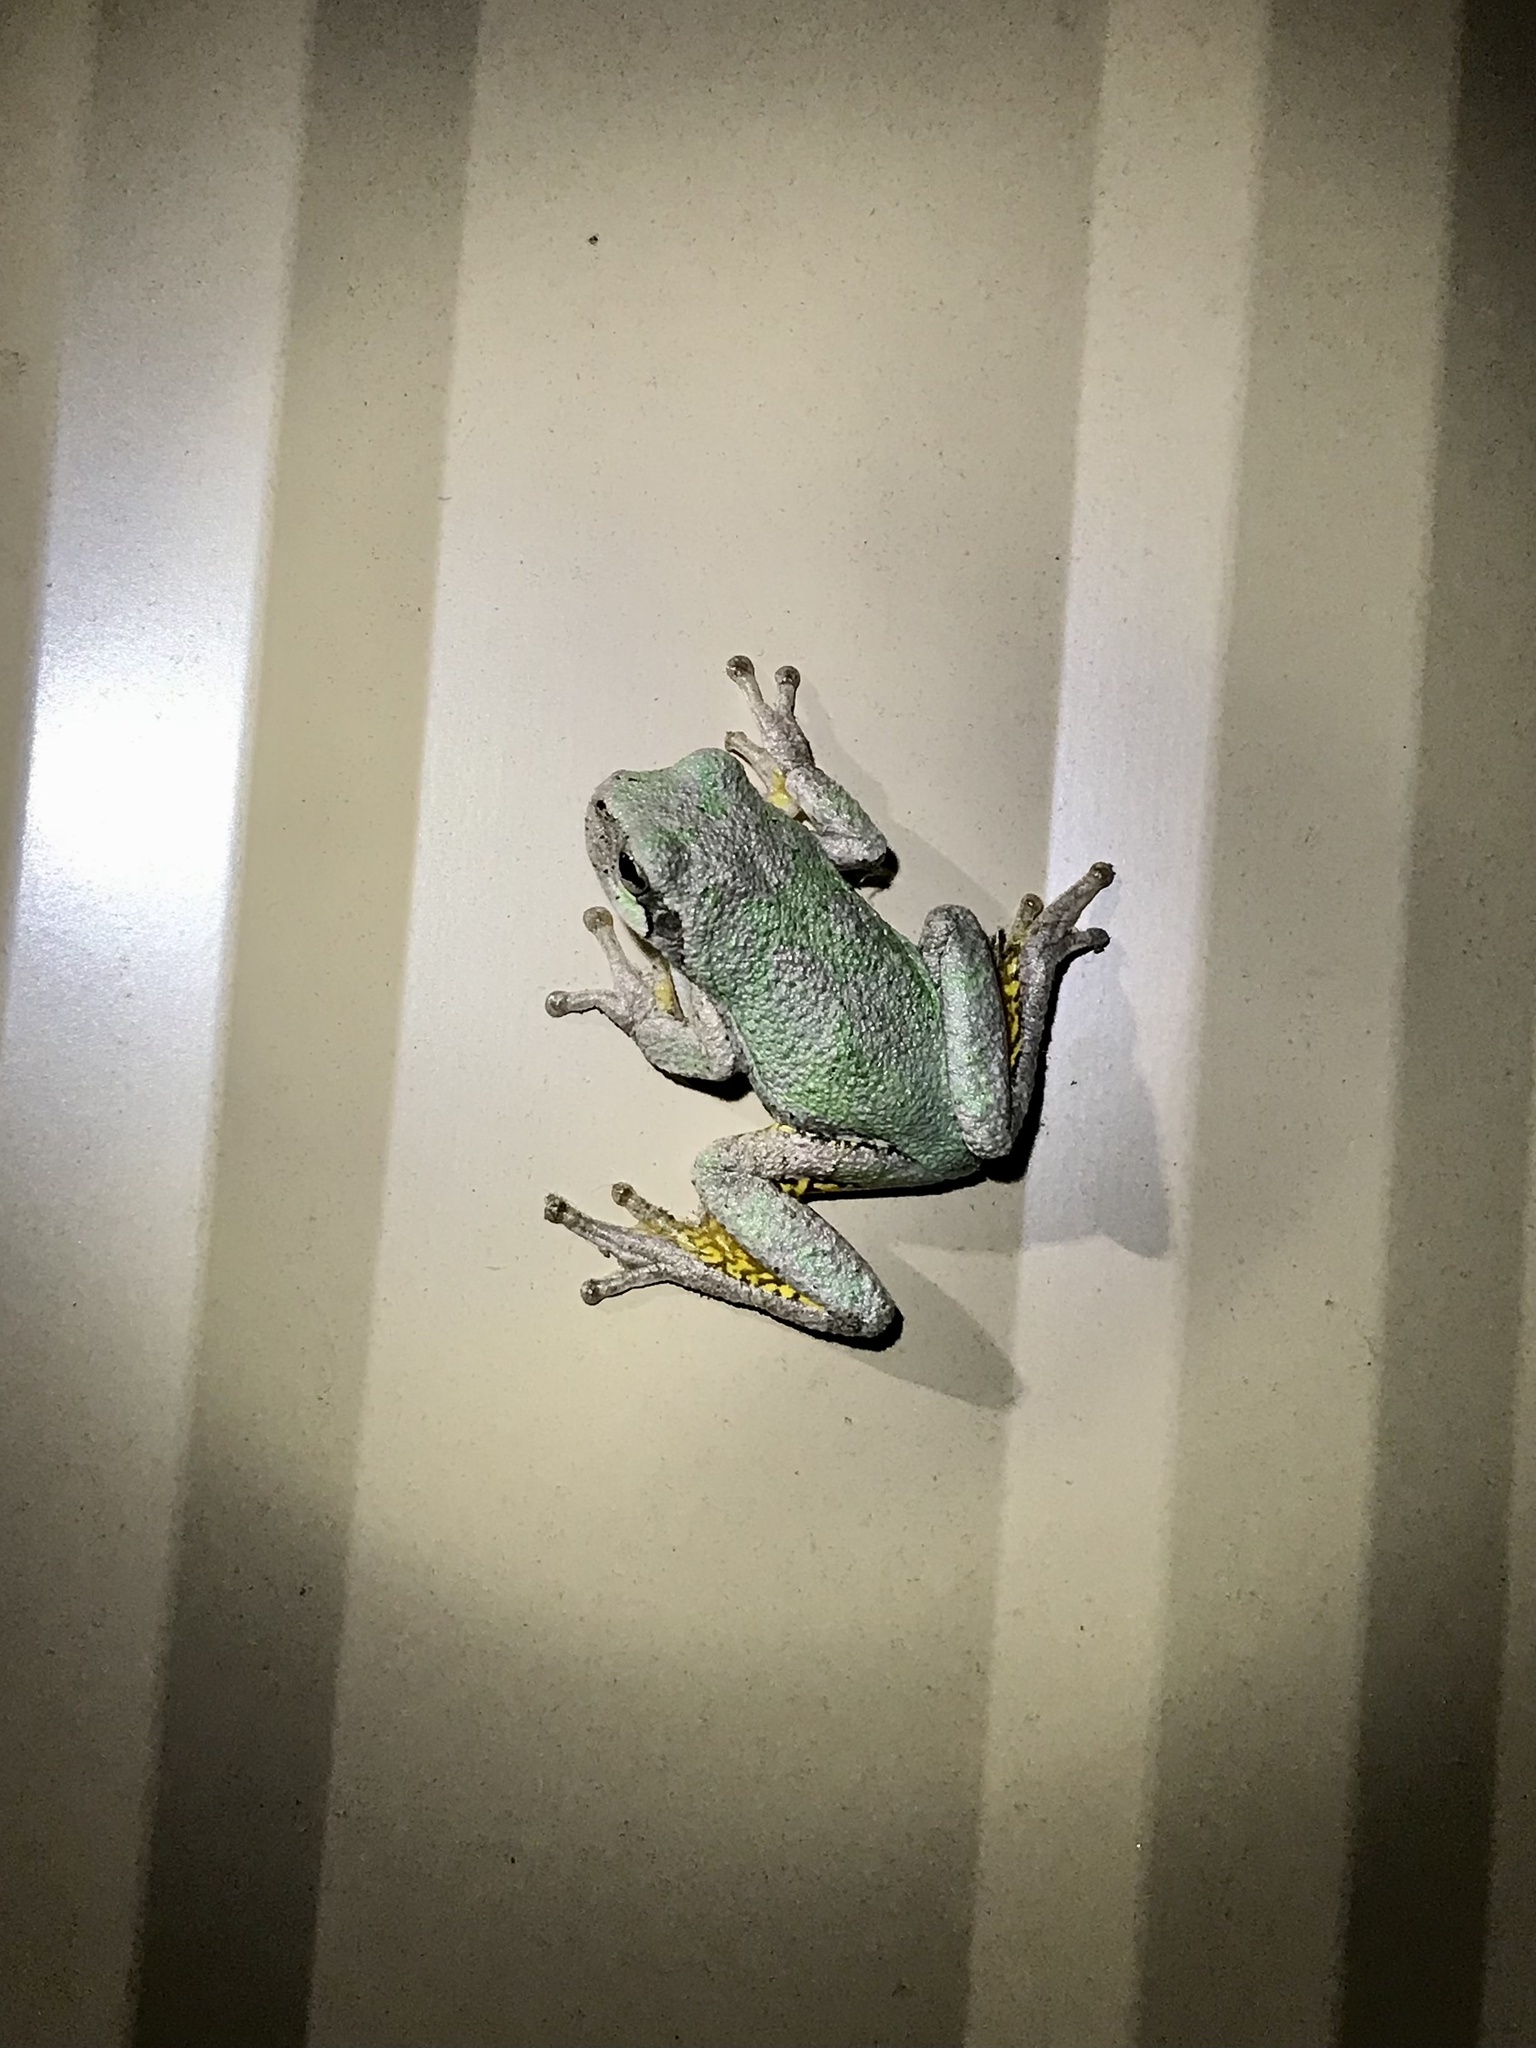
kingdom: Animalia
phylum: Chordata
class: Amphibia
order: Anura
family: Hylidae
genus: Hyla
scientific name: Hyla
